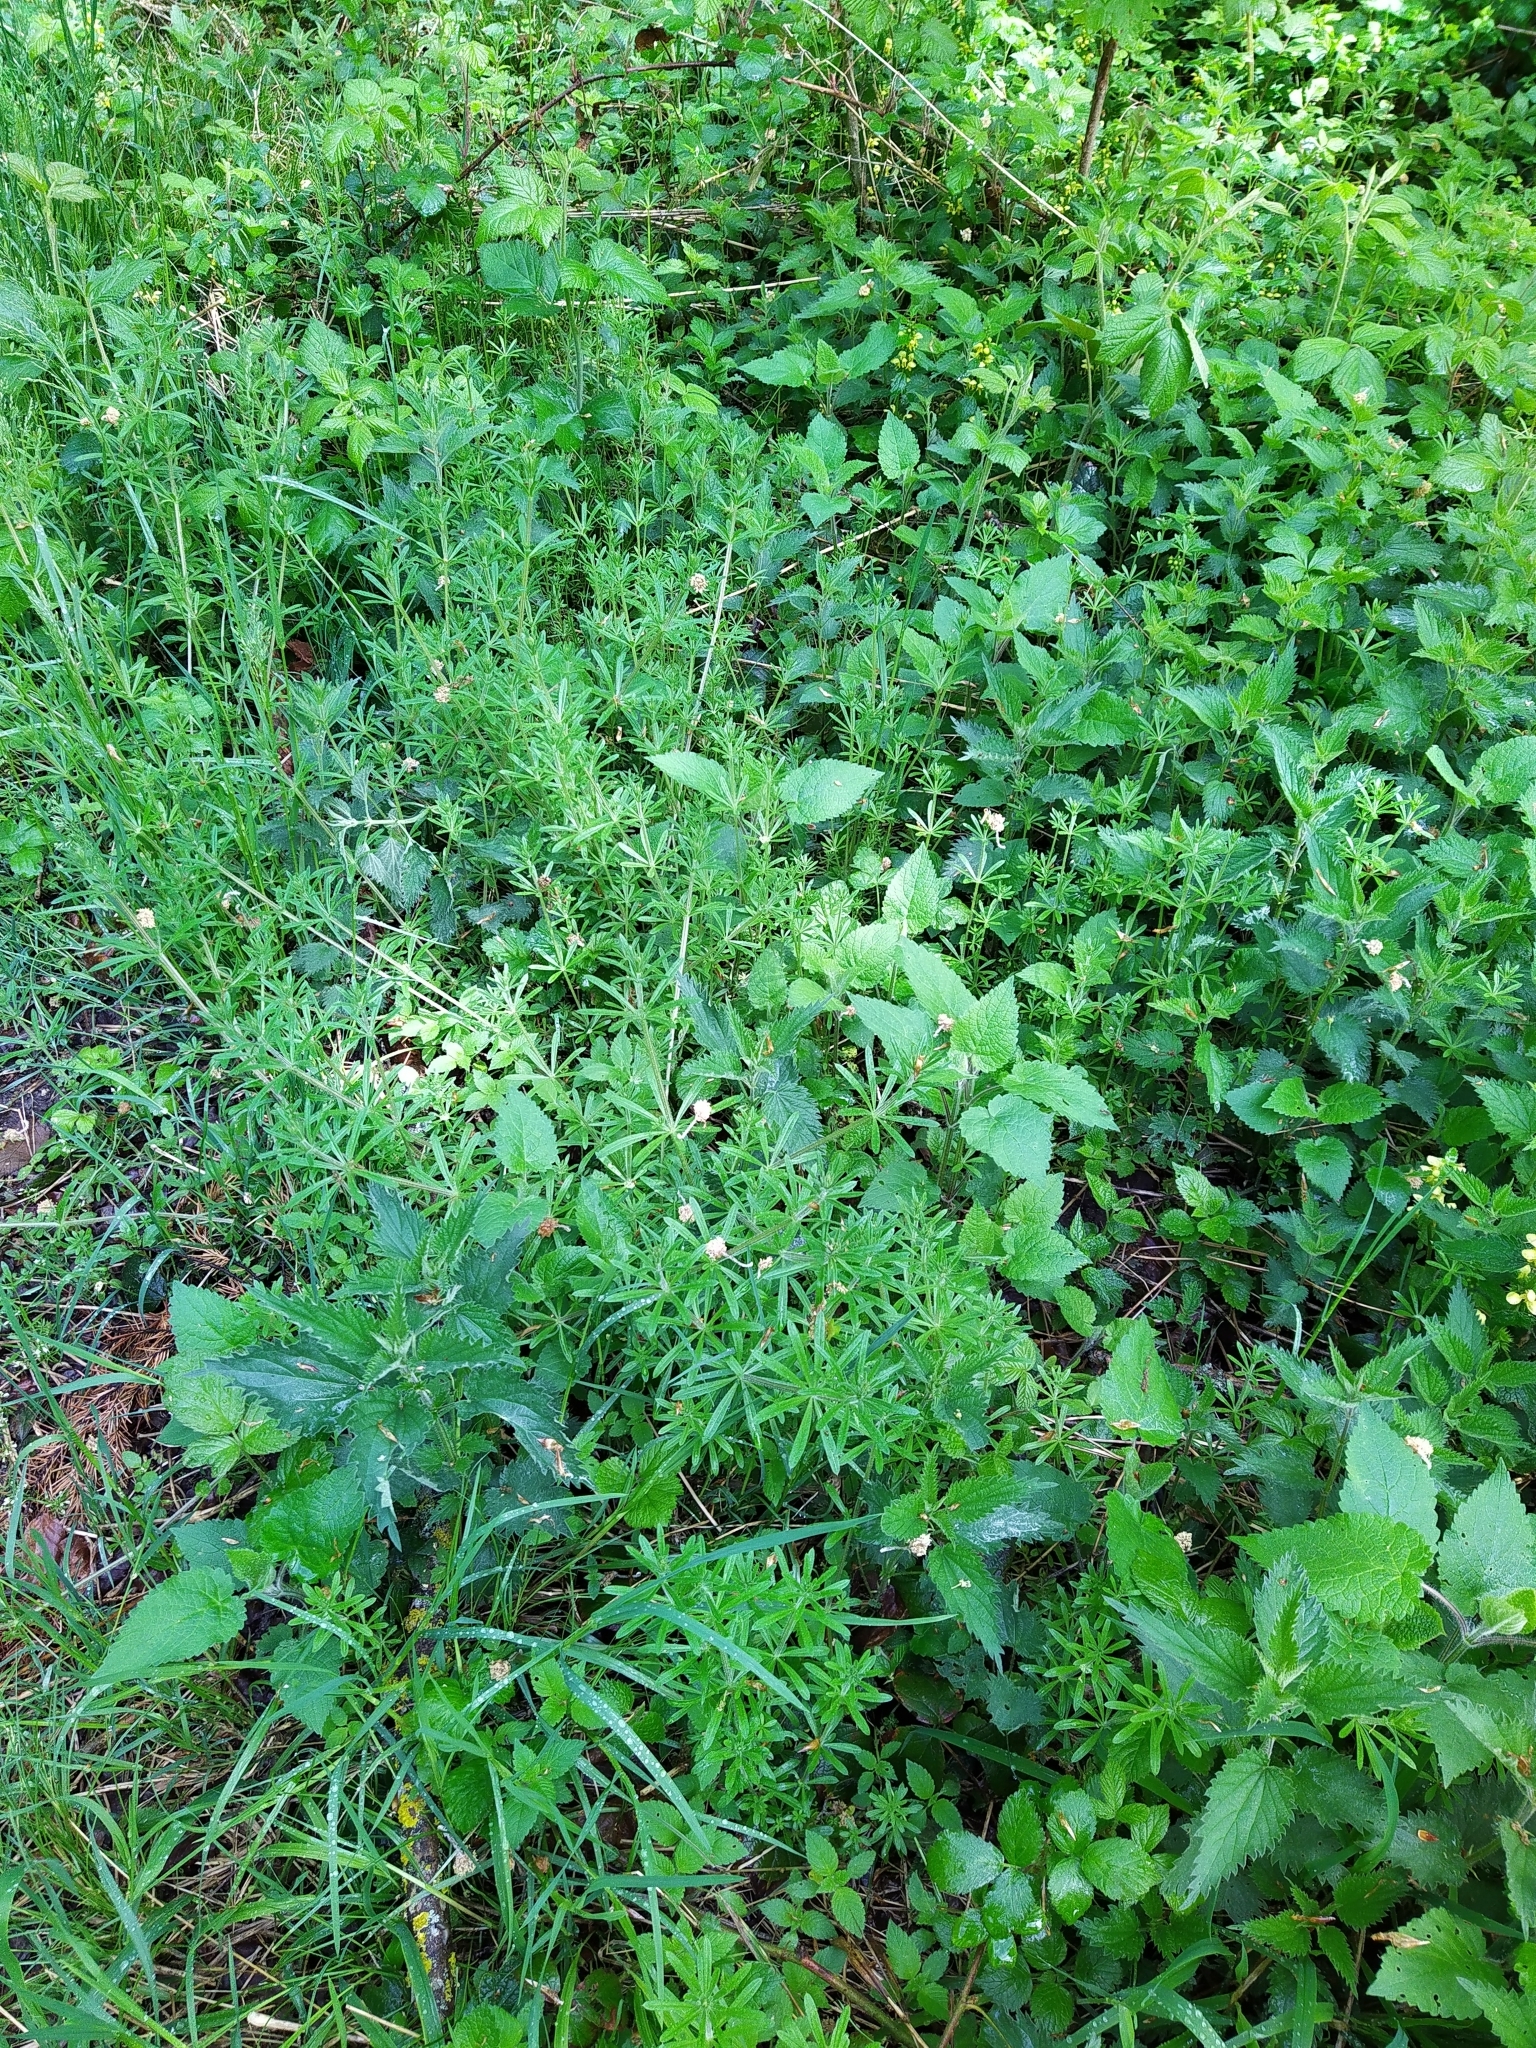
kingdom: Plantae
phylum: Tracheophyta
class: Magnoliopsida
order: Gentianales
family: Rubiaceae
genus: Galium
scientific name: Galium aparine
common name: Cleavers
